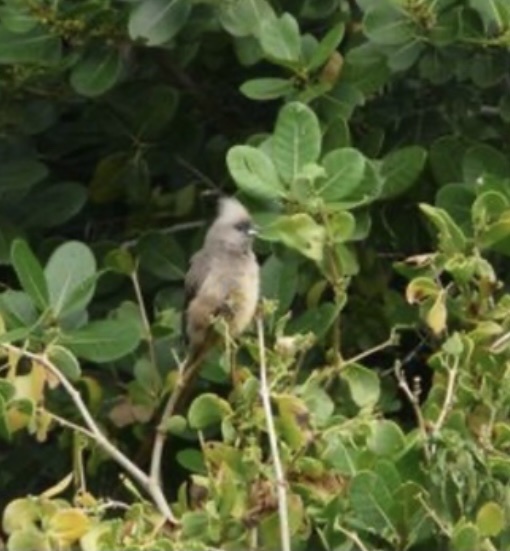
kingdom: Animalia
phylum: Chordata
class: Aves
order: Coliiformes
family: Coliidae
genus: Colius
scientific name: Colius striatus
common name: Speckled mousebird
